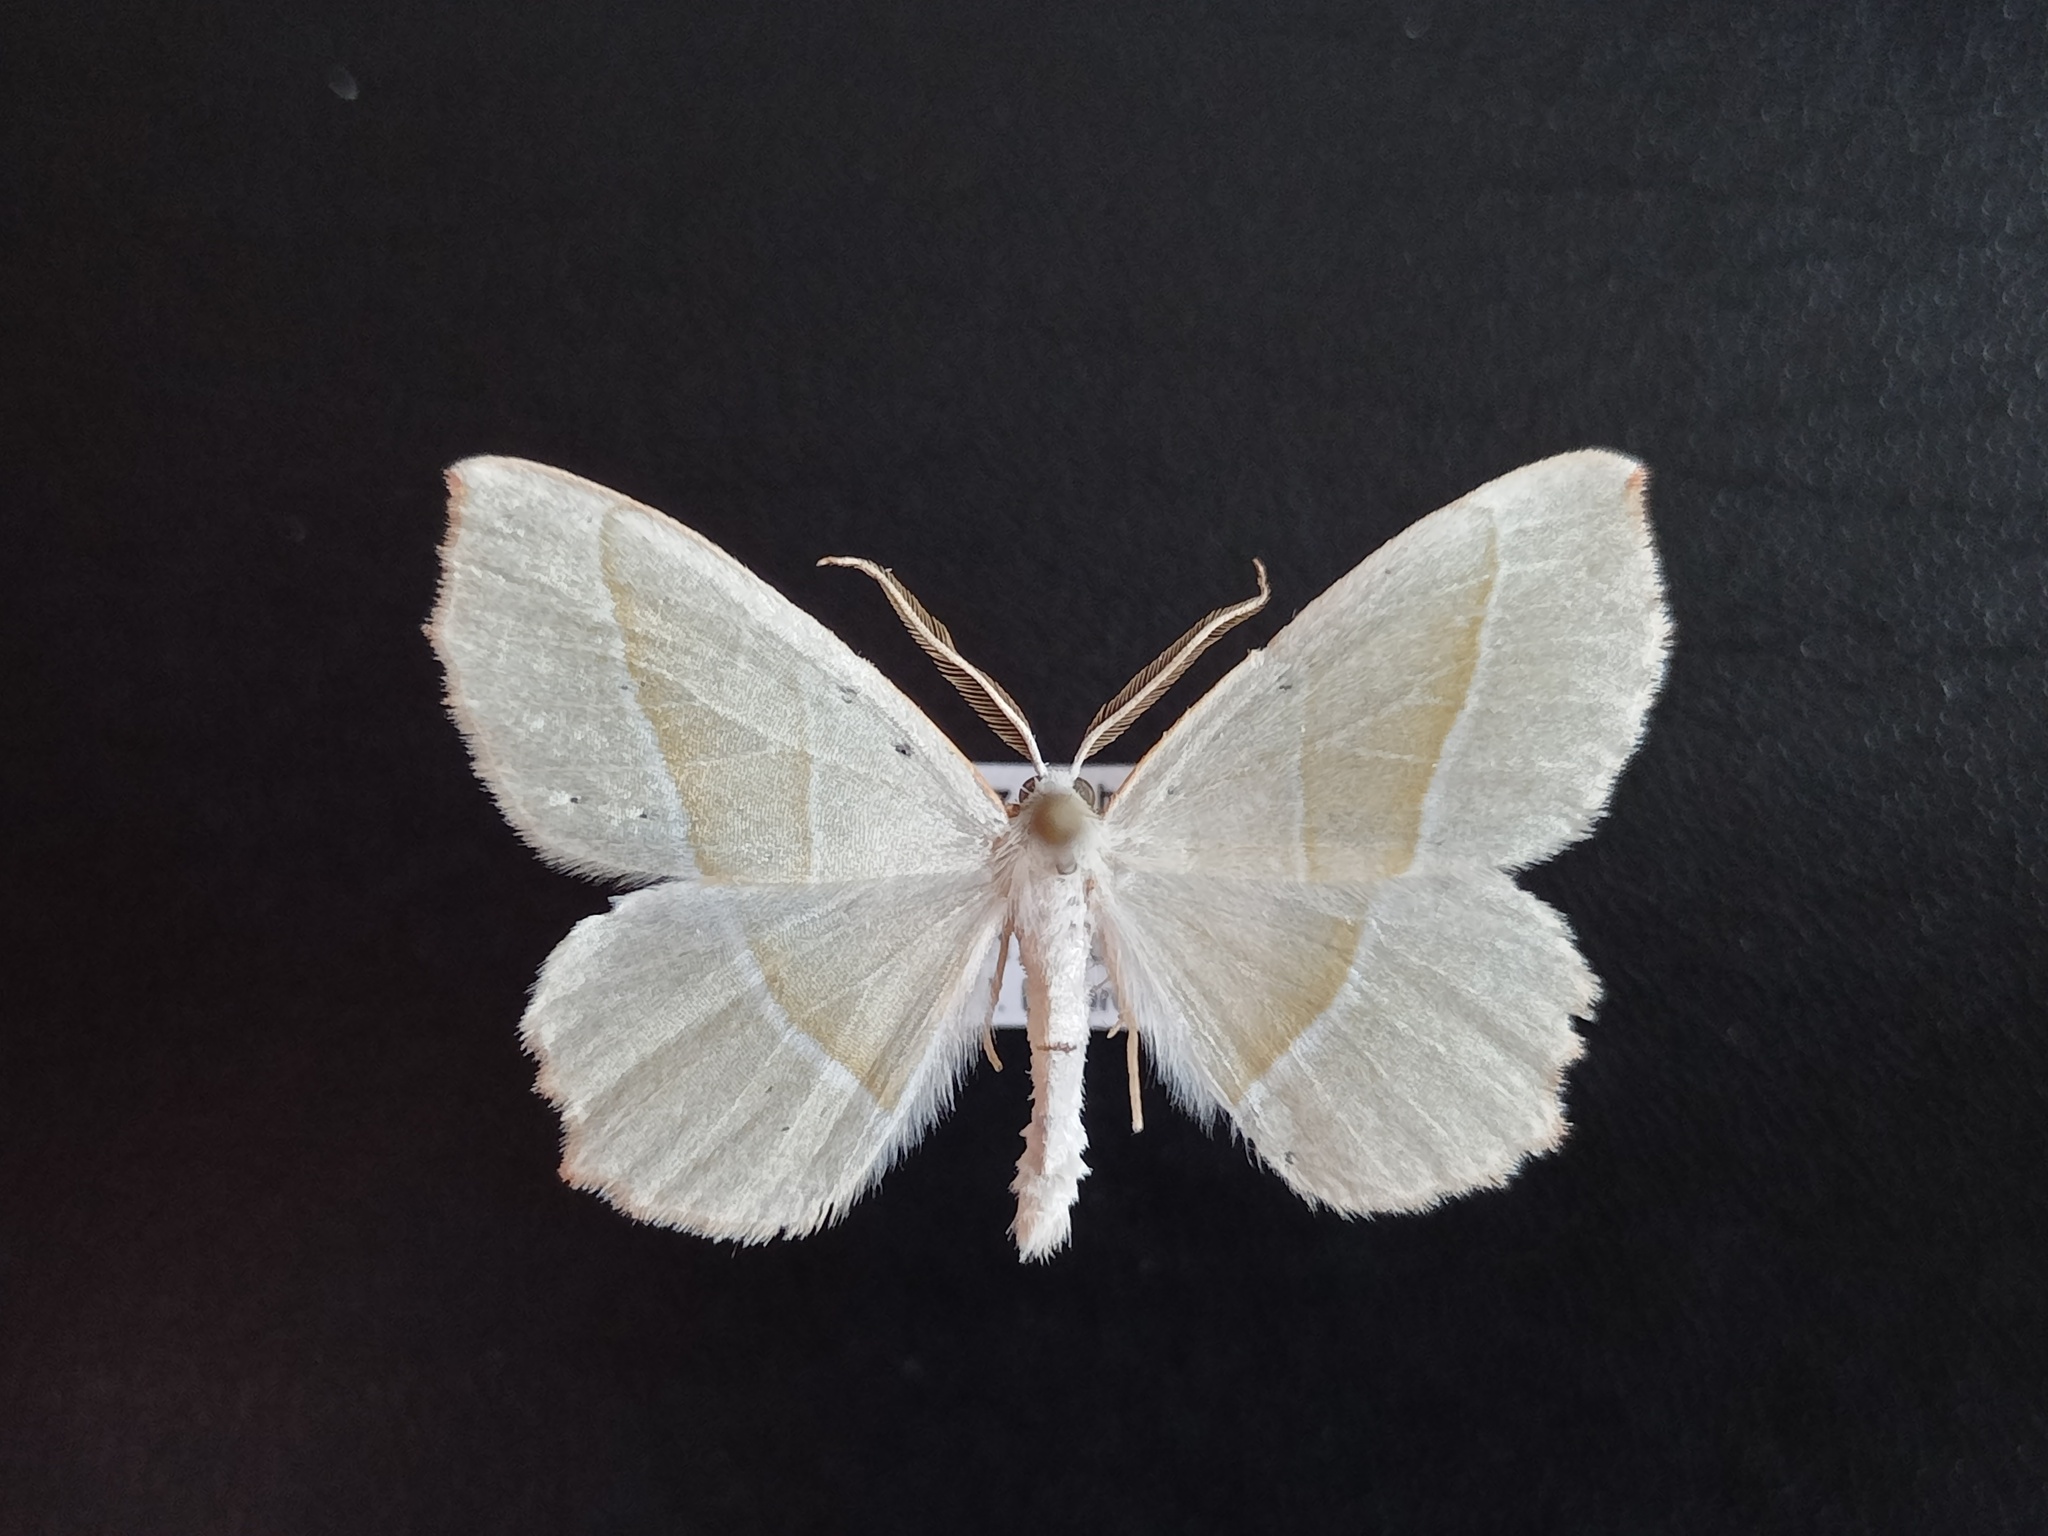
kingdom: Animalia
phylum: Arthropoda
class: Insecta
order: Lepidoptera
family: Geometridae
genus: Campaea
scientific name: Campaea margaritaria
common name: Light emerald
